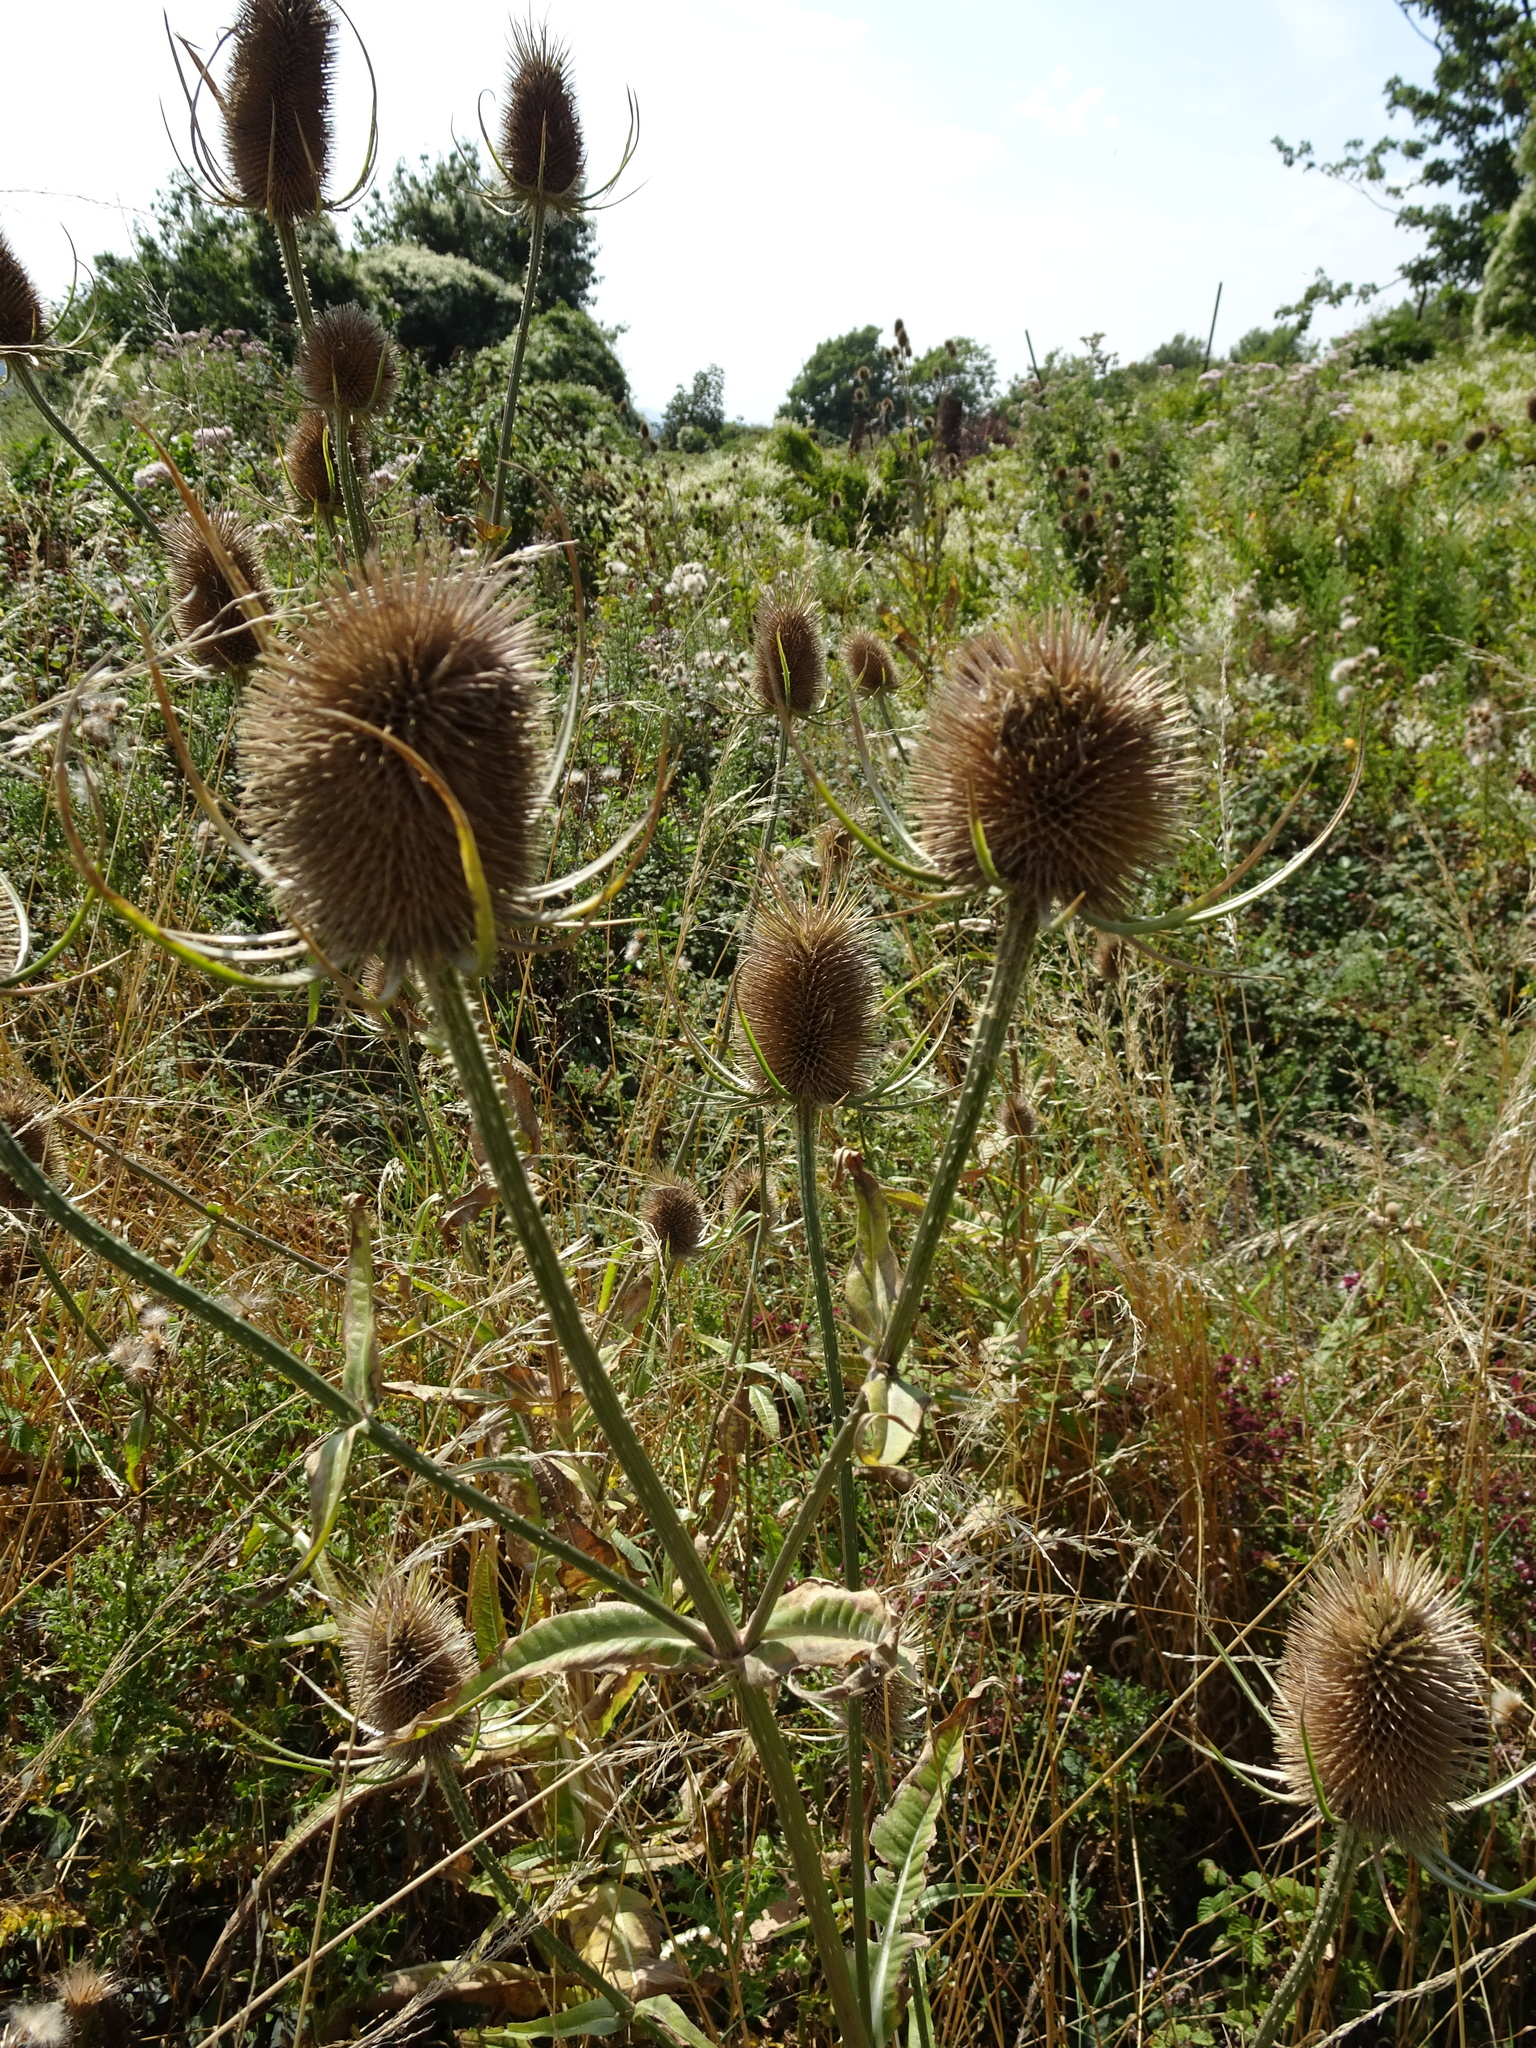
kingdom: Plantae
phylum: Tracheophyta
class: Magnoliopsida
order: Dipsacales
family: Caprifoliaceae
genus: Dipsacus
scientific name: Dipsacus fullonum
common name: Teasel
